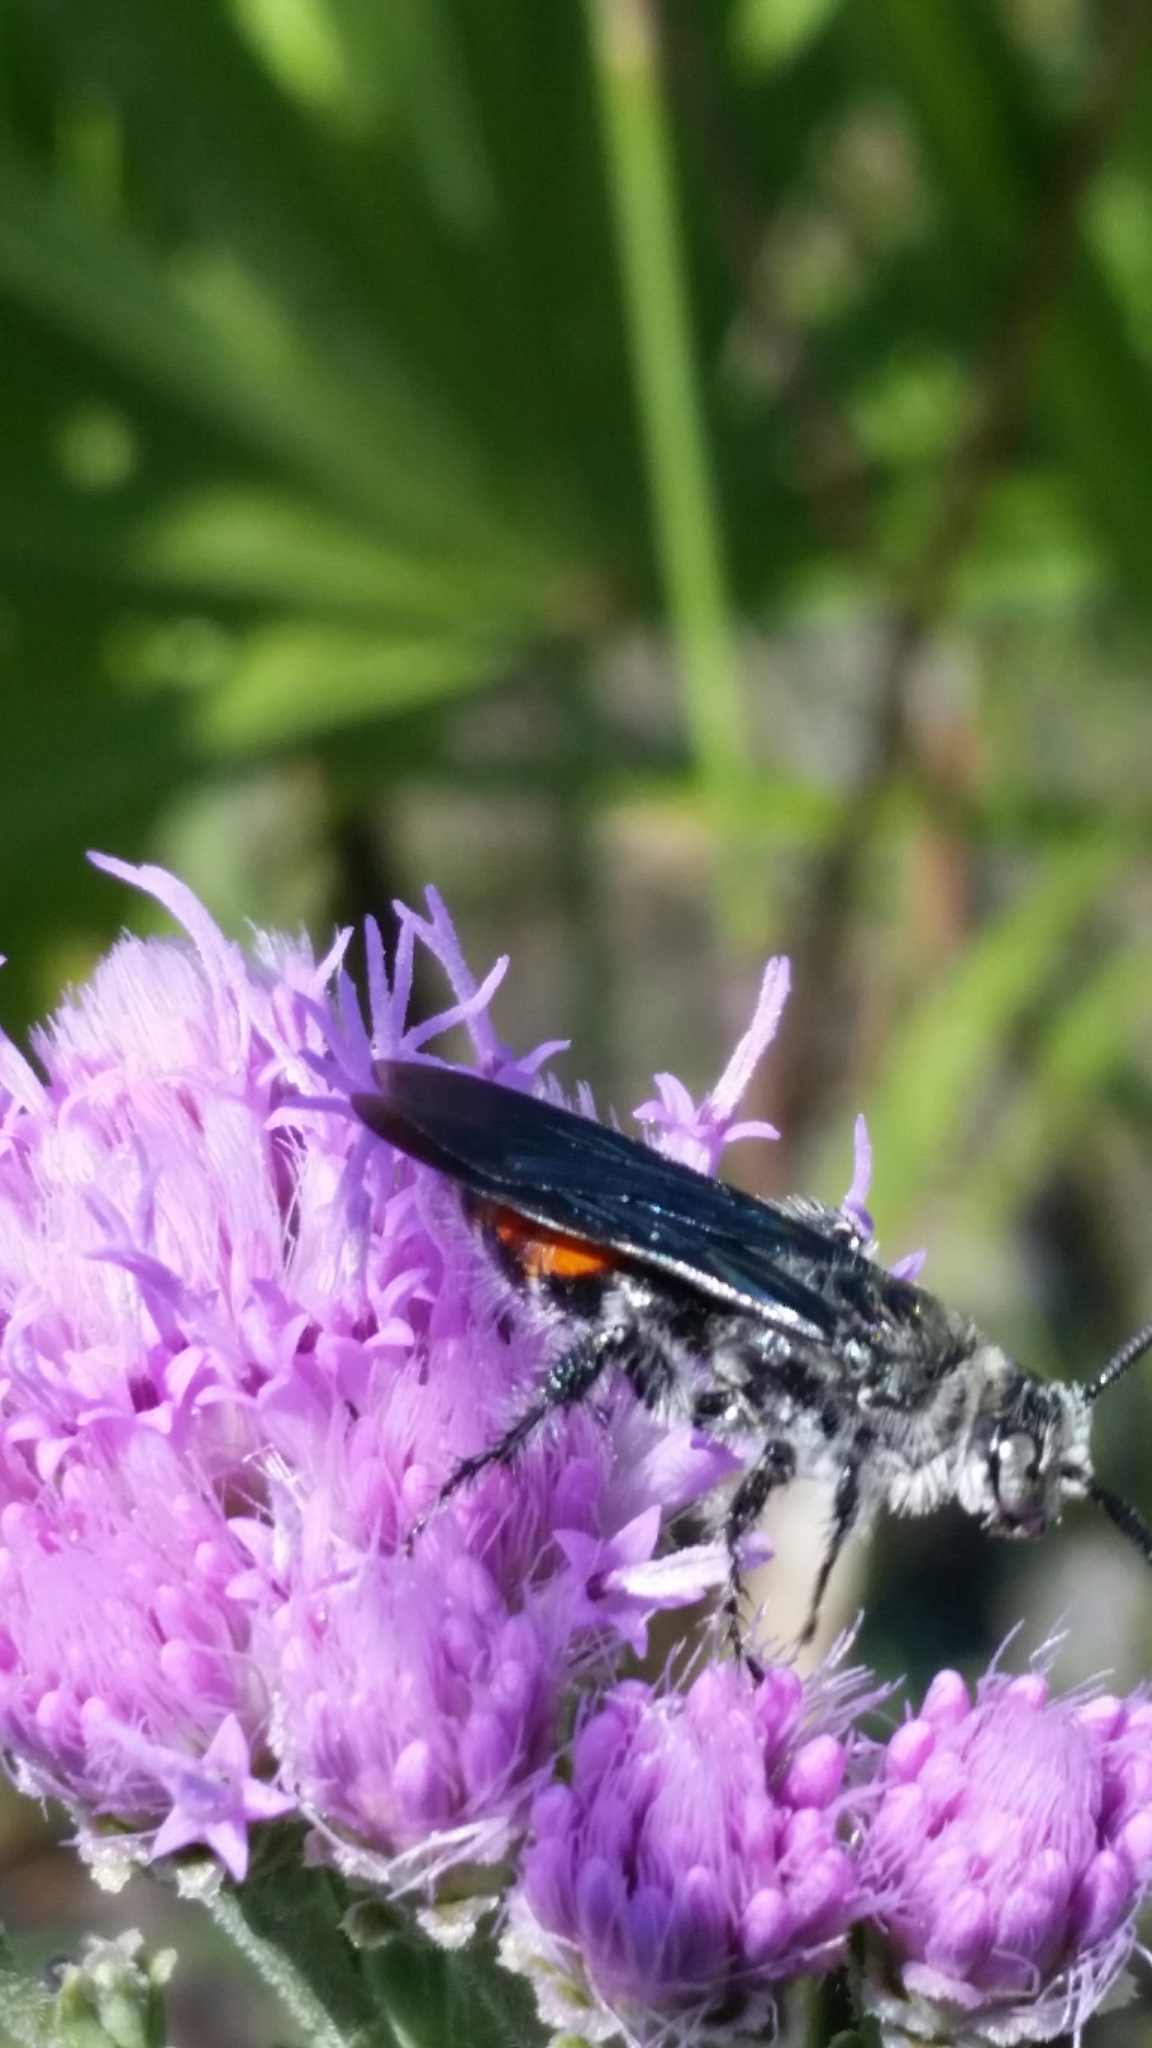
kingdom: Animalia
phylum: Arthropoda
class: Insecta
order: Hymenoptera
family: Scoliidae
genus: Dielis
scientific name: Dielis dorsata
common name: Scoliid wasp
